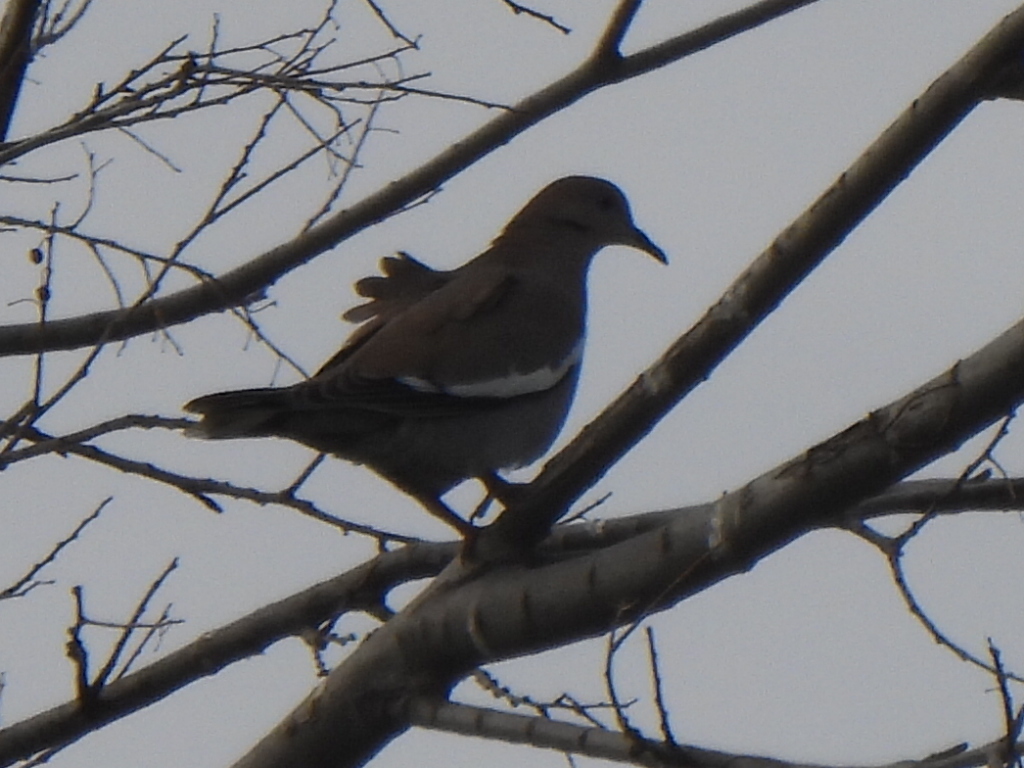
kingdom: Animalia
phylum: Chordata
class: Aves
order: Columbiformes
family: Columbidae
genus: Zenaida
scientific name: Zenaida asiatica
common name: White-winged dove
